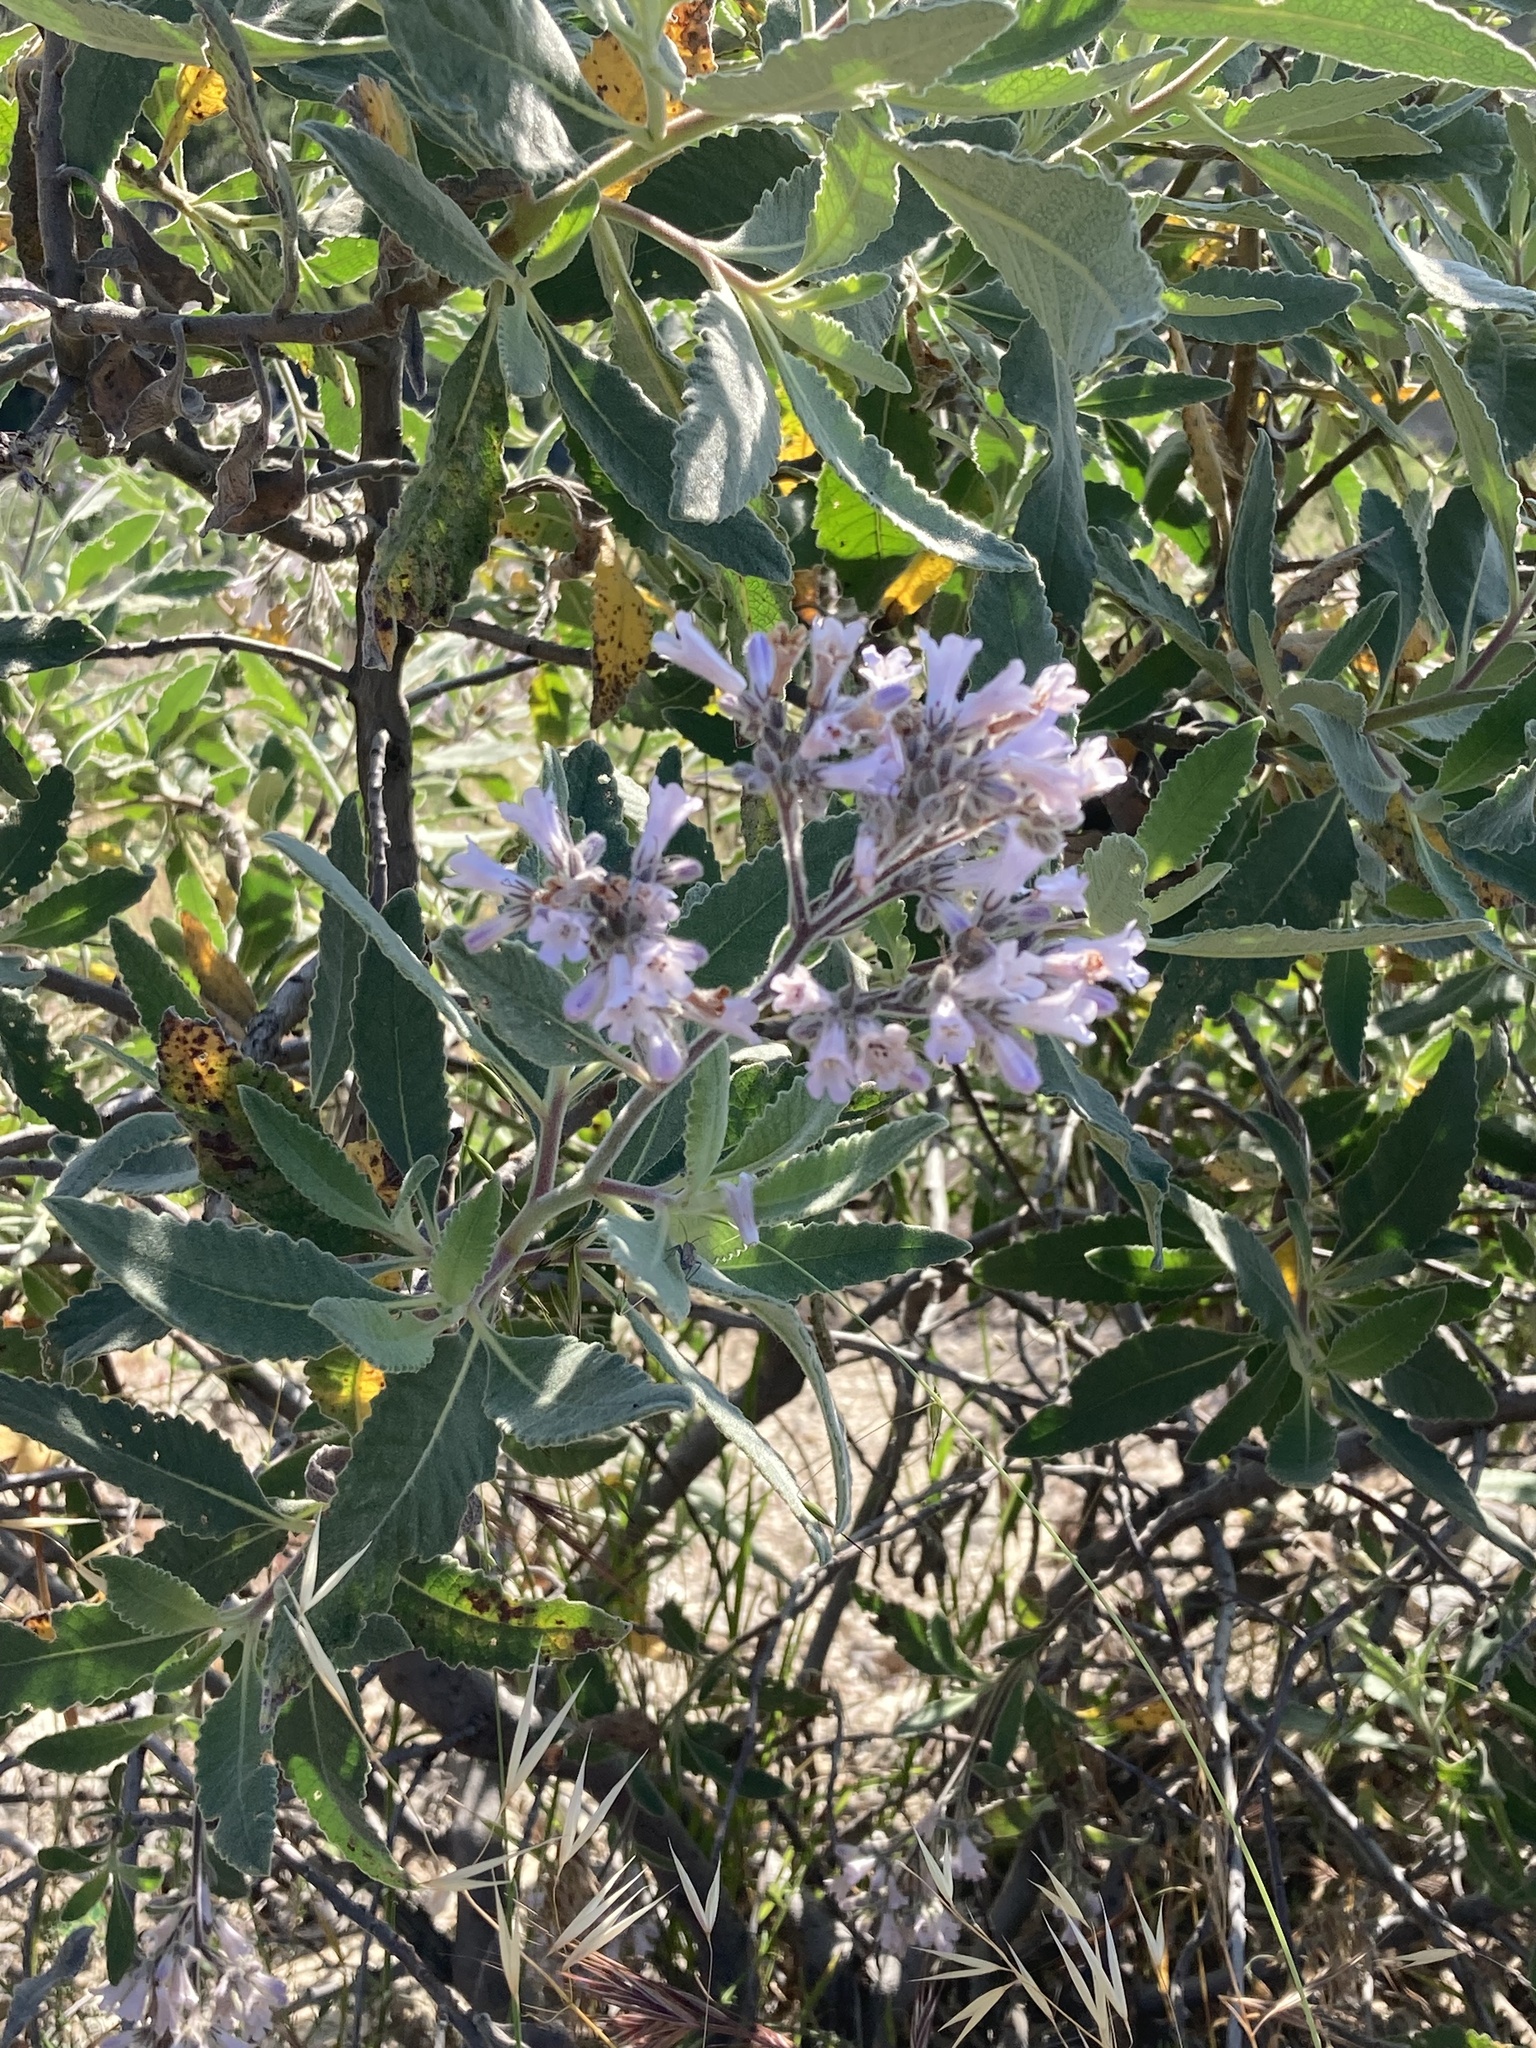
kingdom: Plantae
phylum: Tracheophyta
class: Magnoliopsida
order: Boraginales
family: Namaceae
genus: Eriodictyon
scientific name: Eriodictyon crassifolium
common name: Thick-leaf yerba-santa
